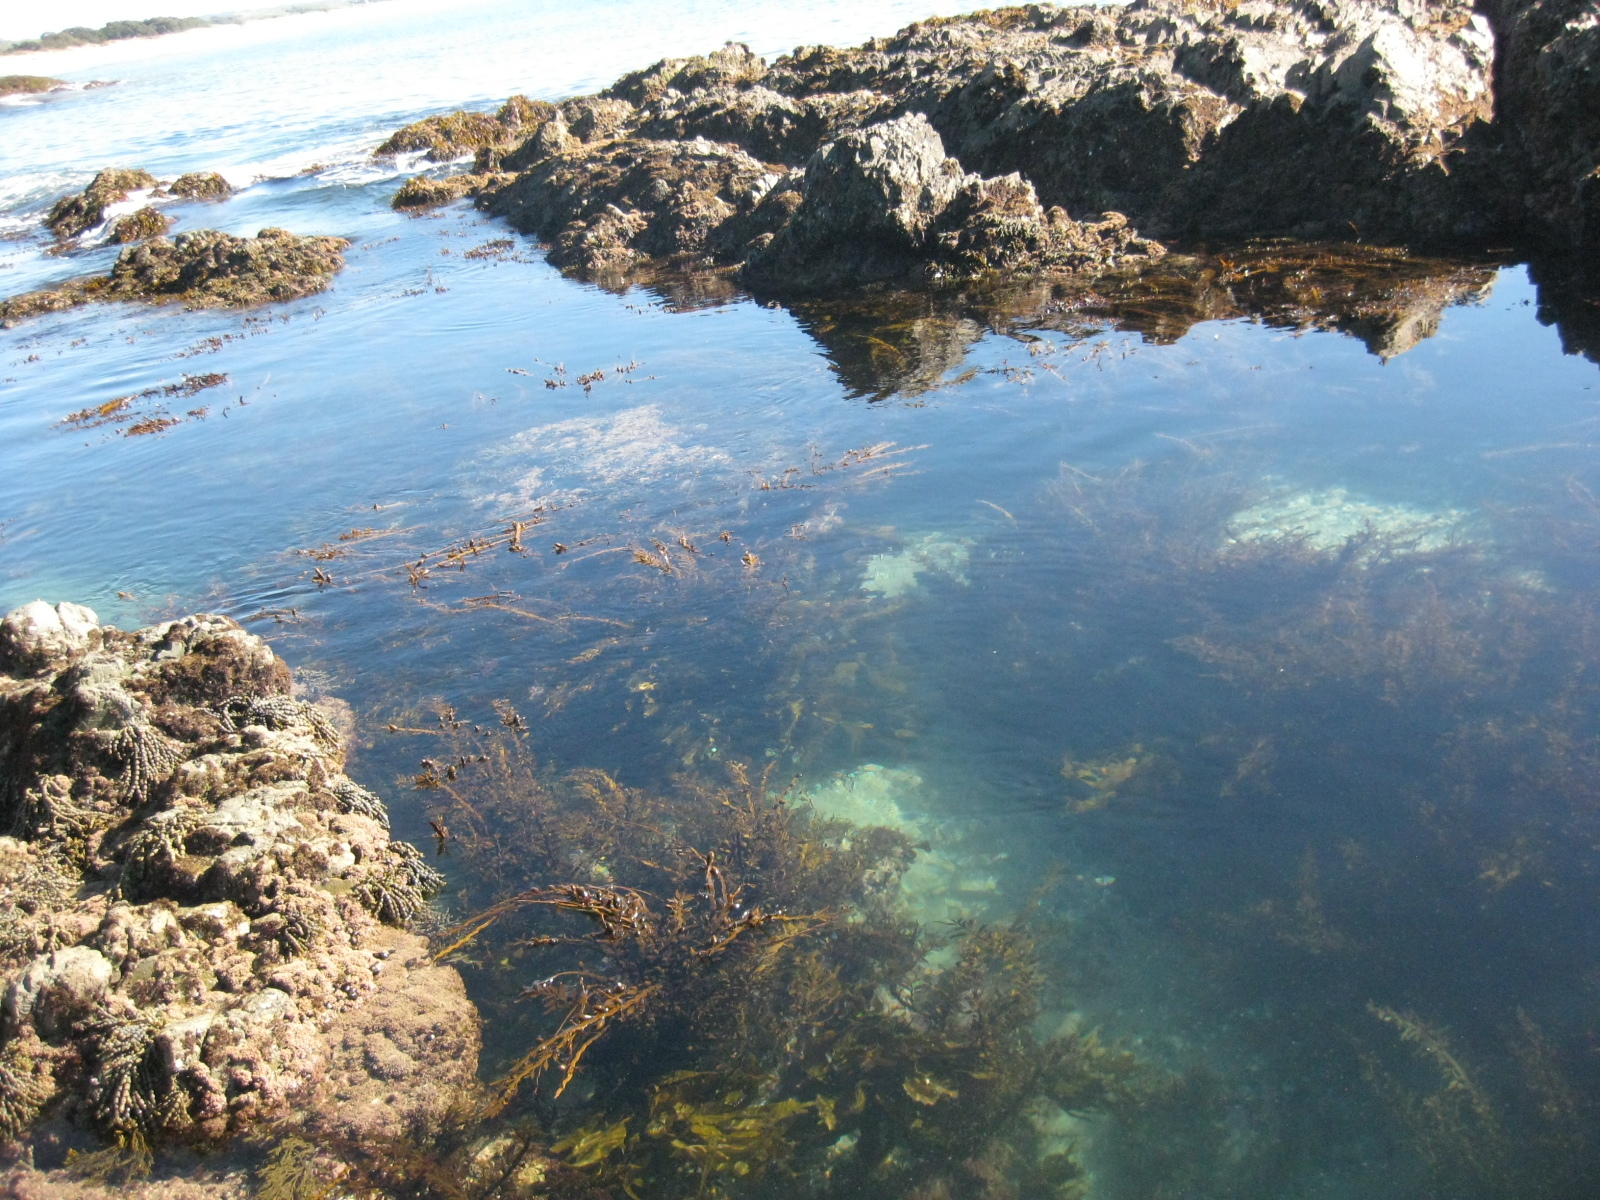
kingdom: Animalia
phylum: Mollusca
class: Gastropoda
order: Lepetellida
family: Haliotidae
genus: Haliotis
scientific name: Haliotis iris
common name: Abalone
